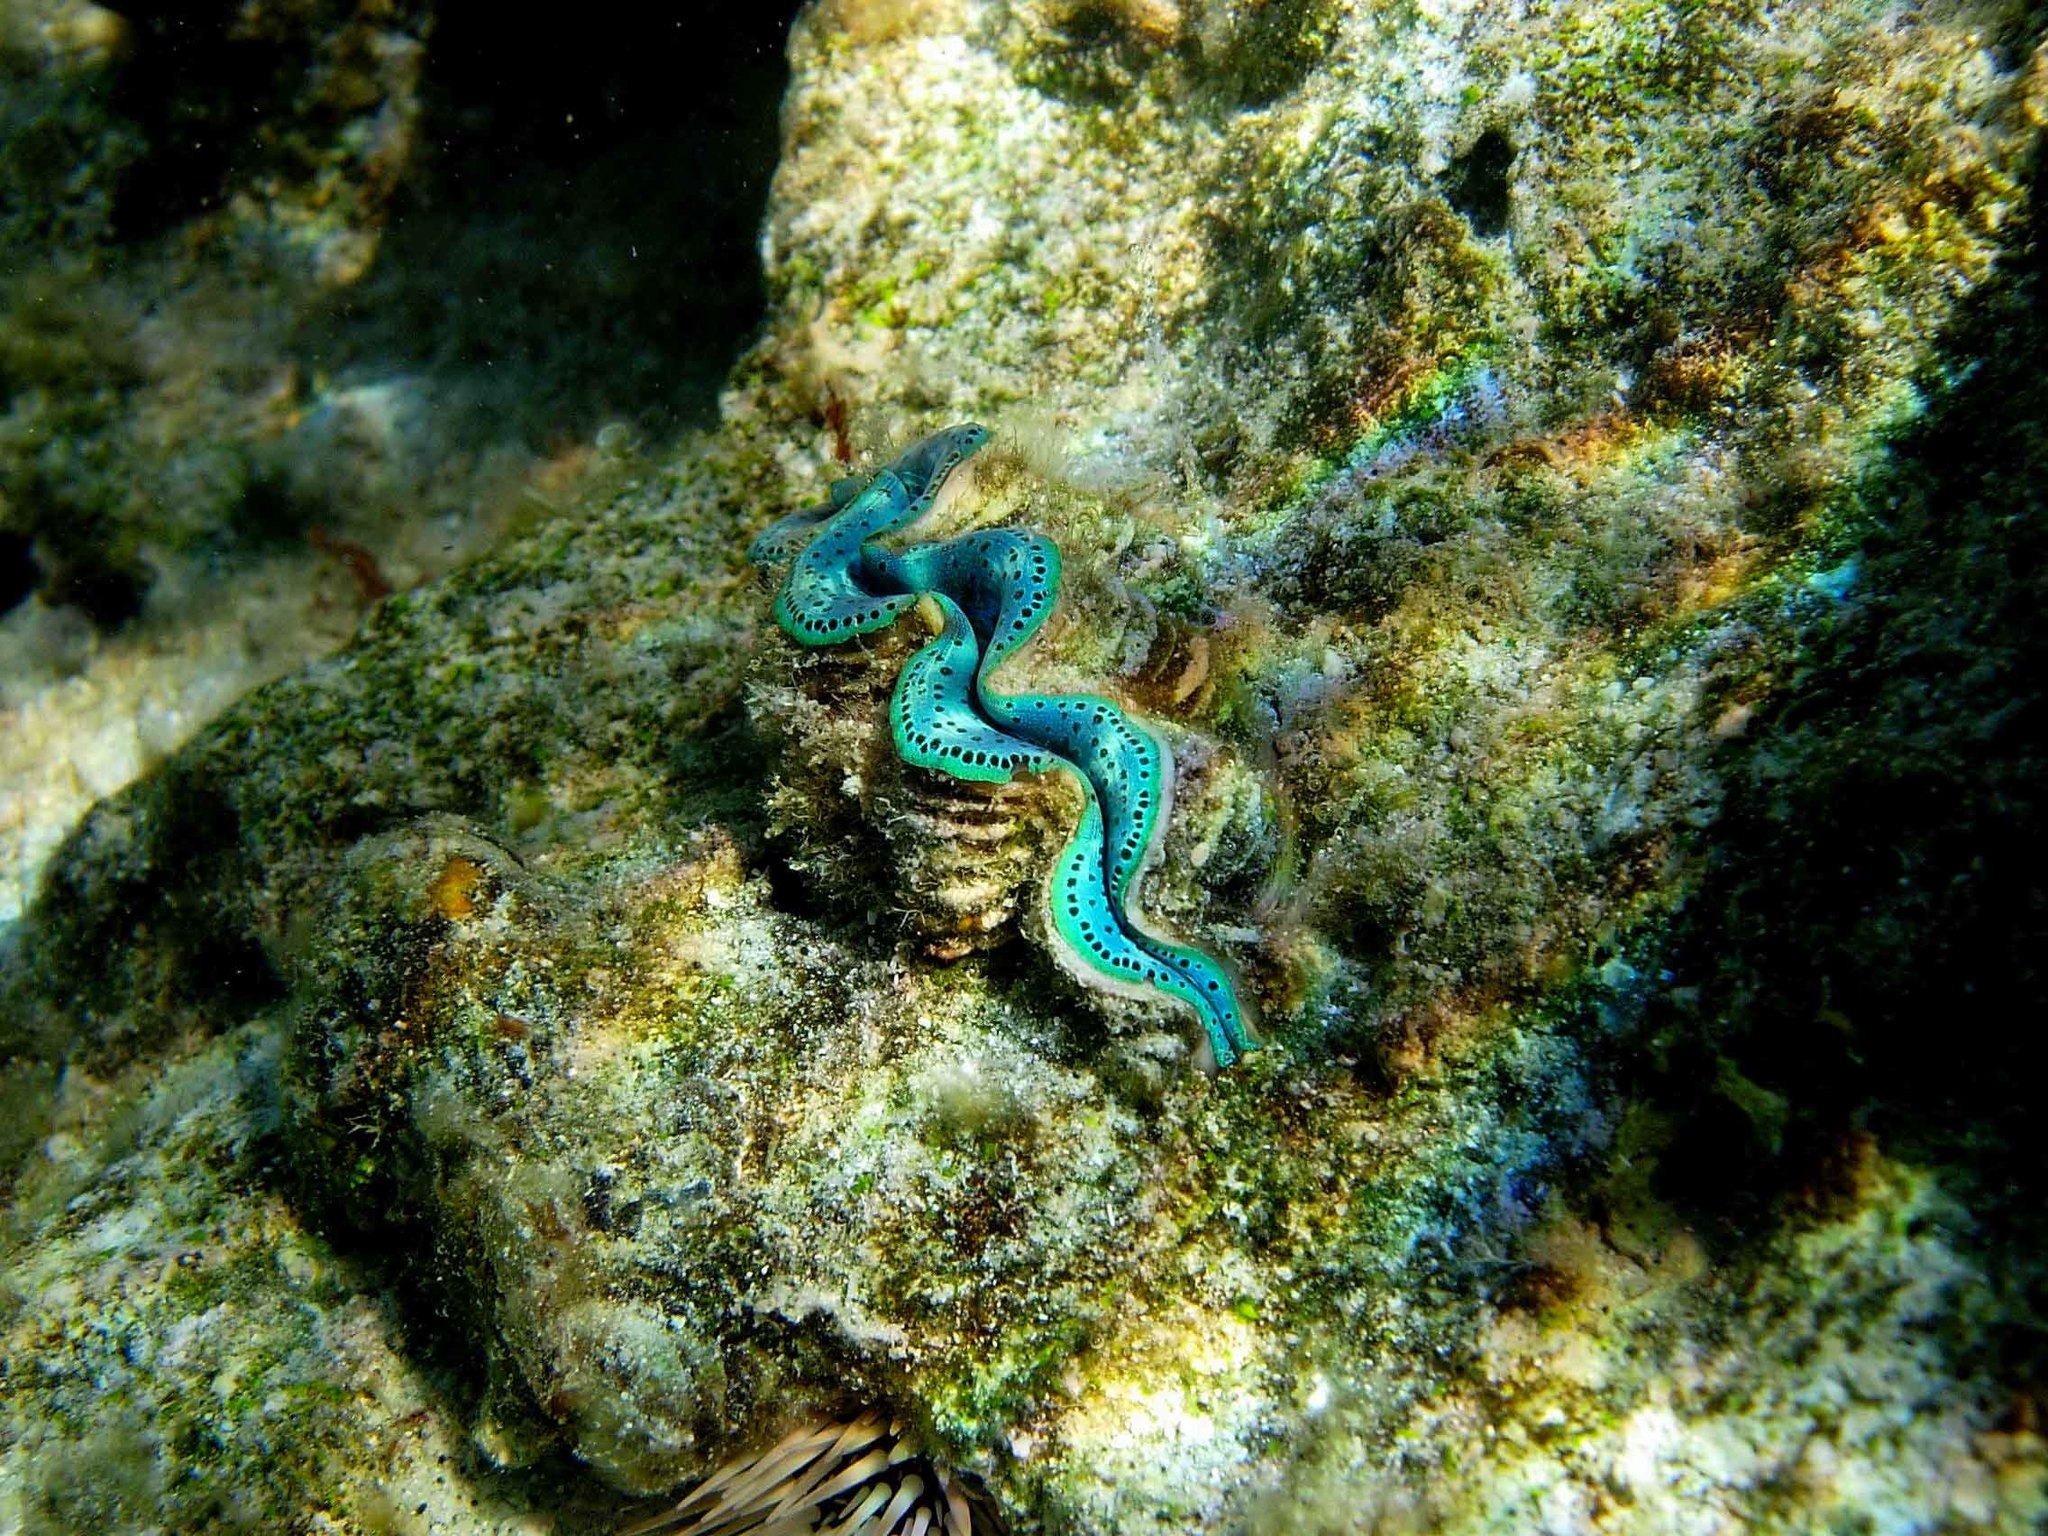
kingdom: Animalia
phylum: Mollusca
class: Bivalvia
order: Cardiida
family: Cardiidae
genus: Tridacna
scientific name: Tridacna maxima
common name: Small giant clam
